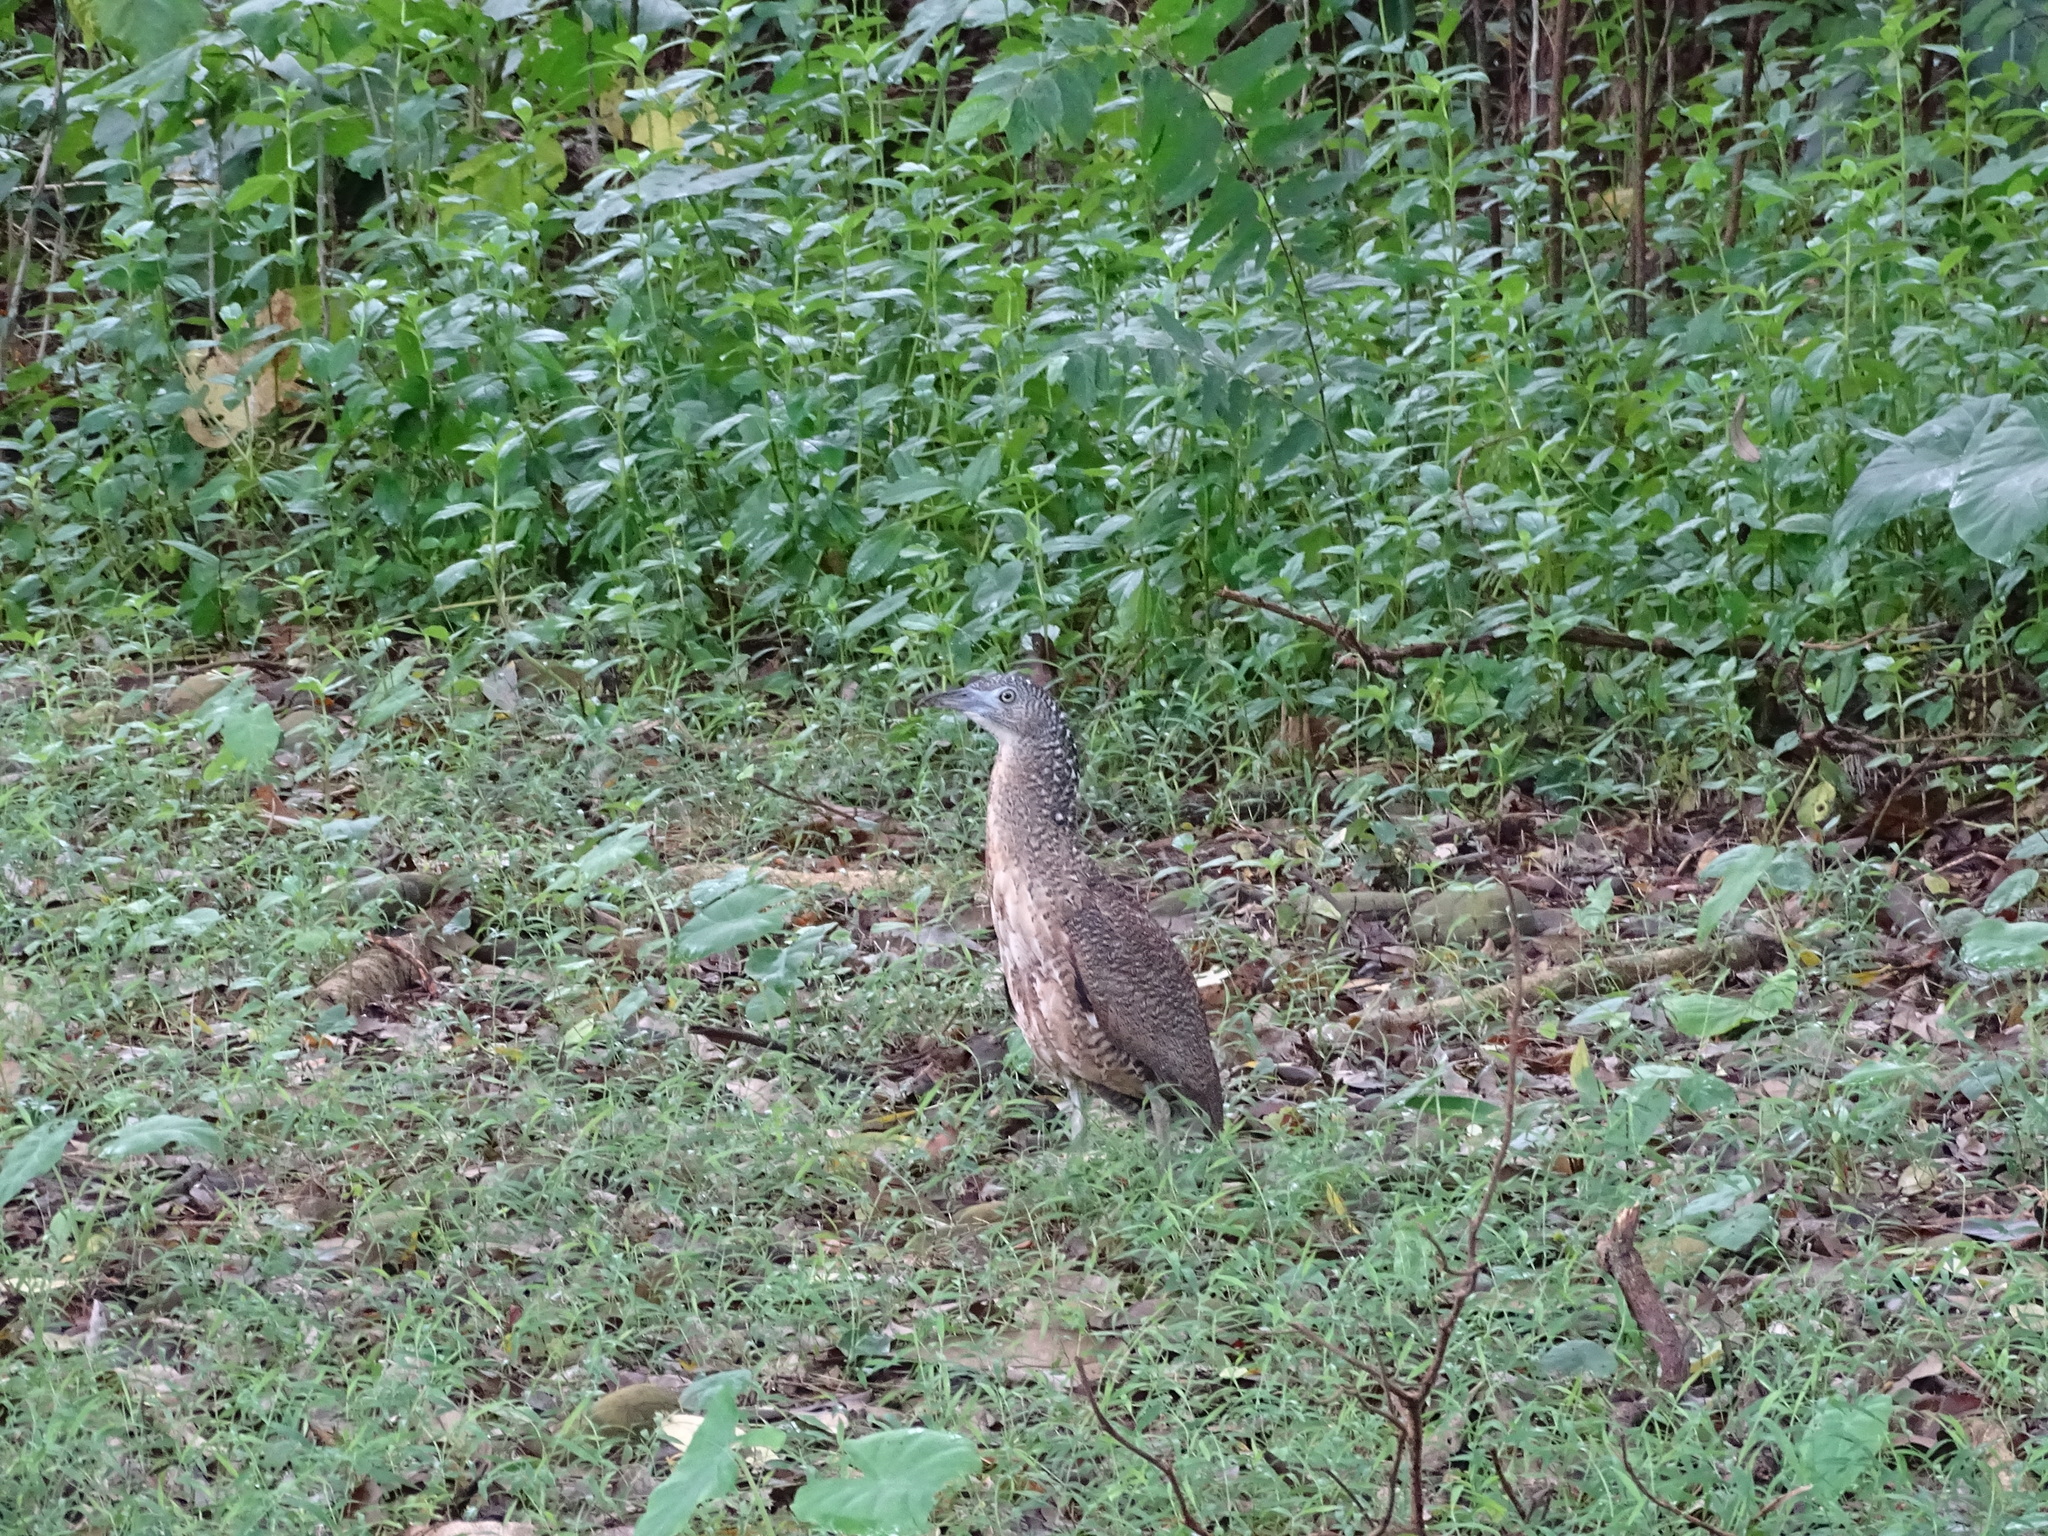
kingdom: Animalia
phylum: Chordata
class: Aves
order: Pelecaniformes
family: Ardeidae
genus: Gorsachius
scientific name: Gorsachius melanolophus
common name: Malayan night heron
